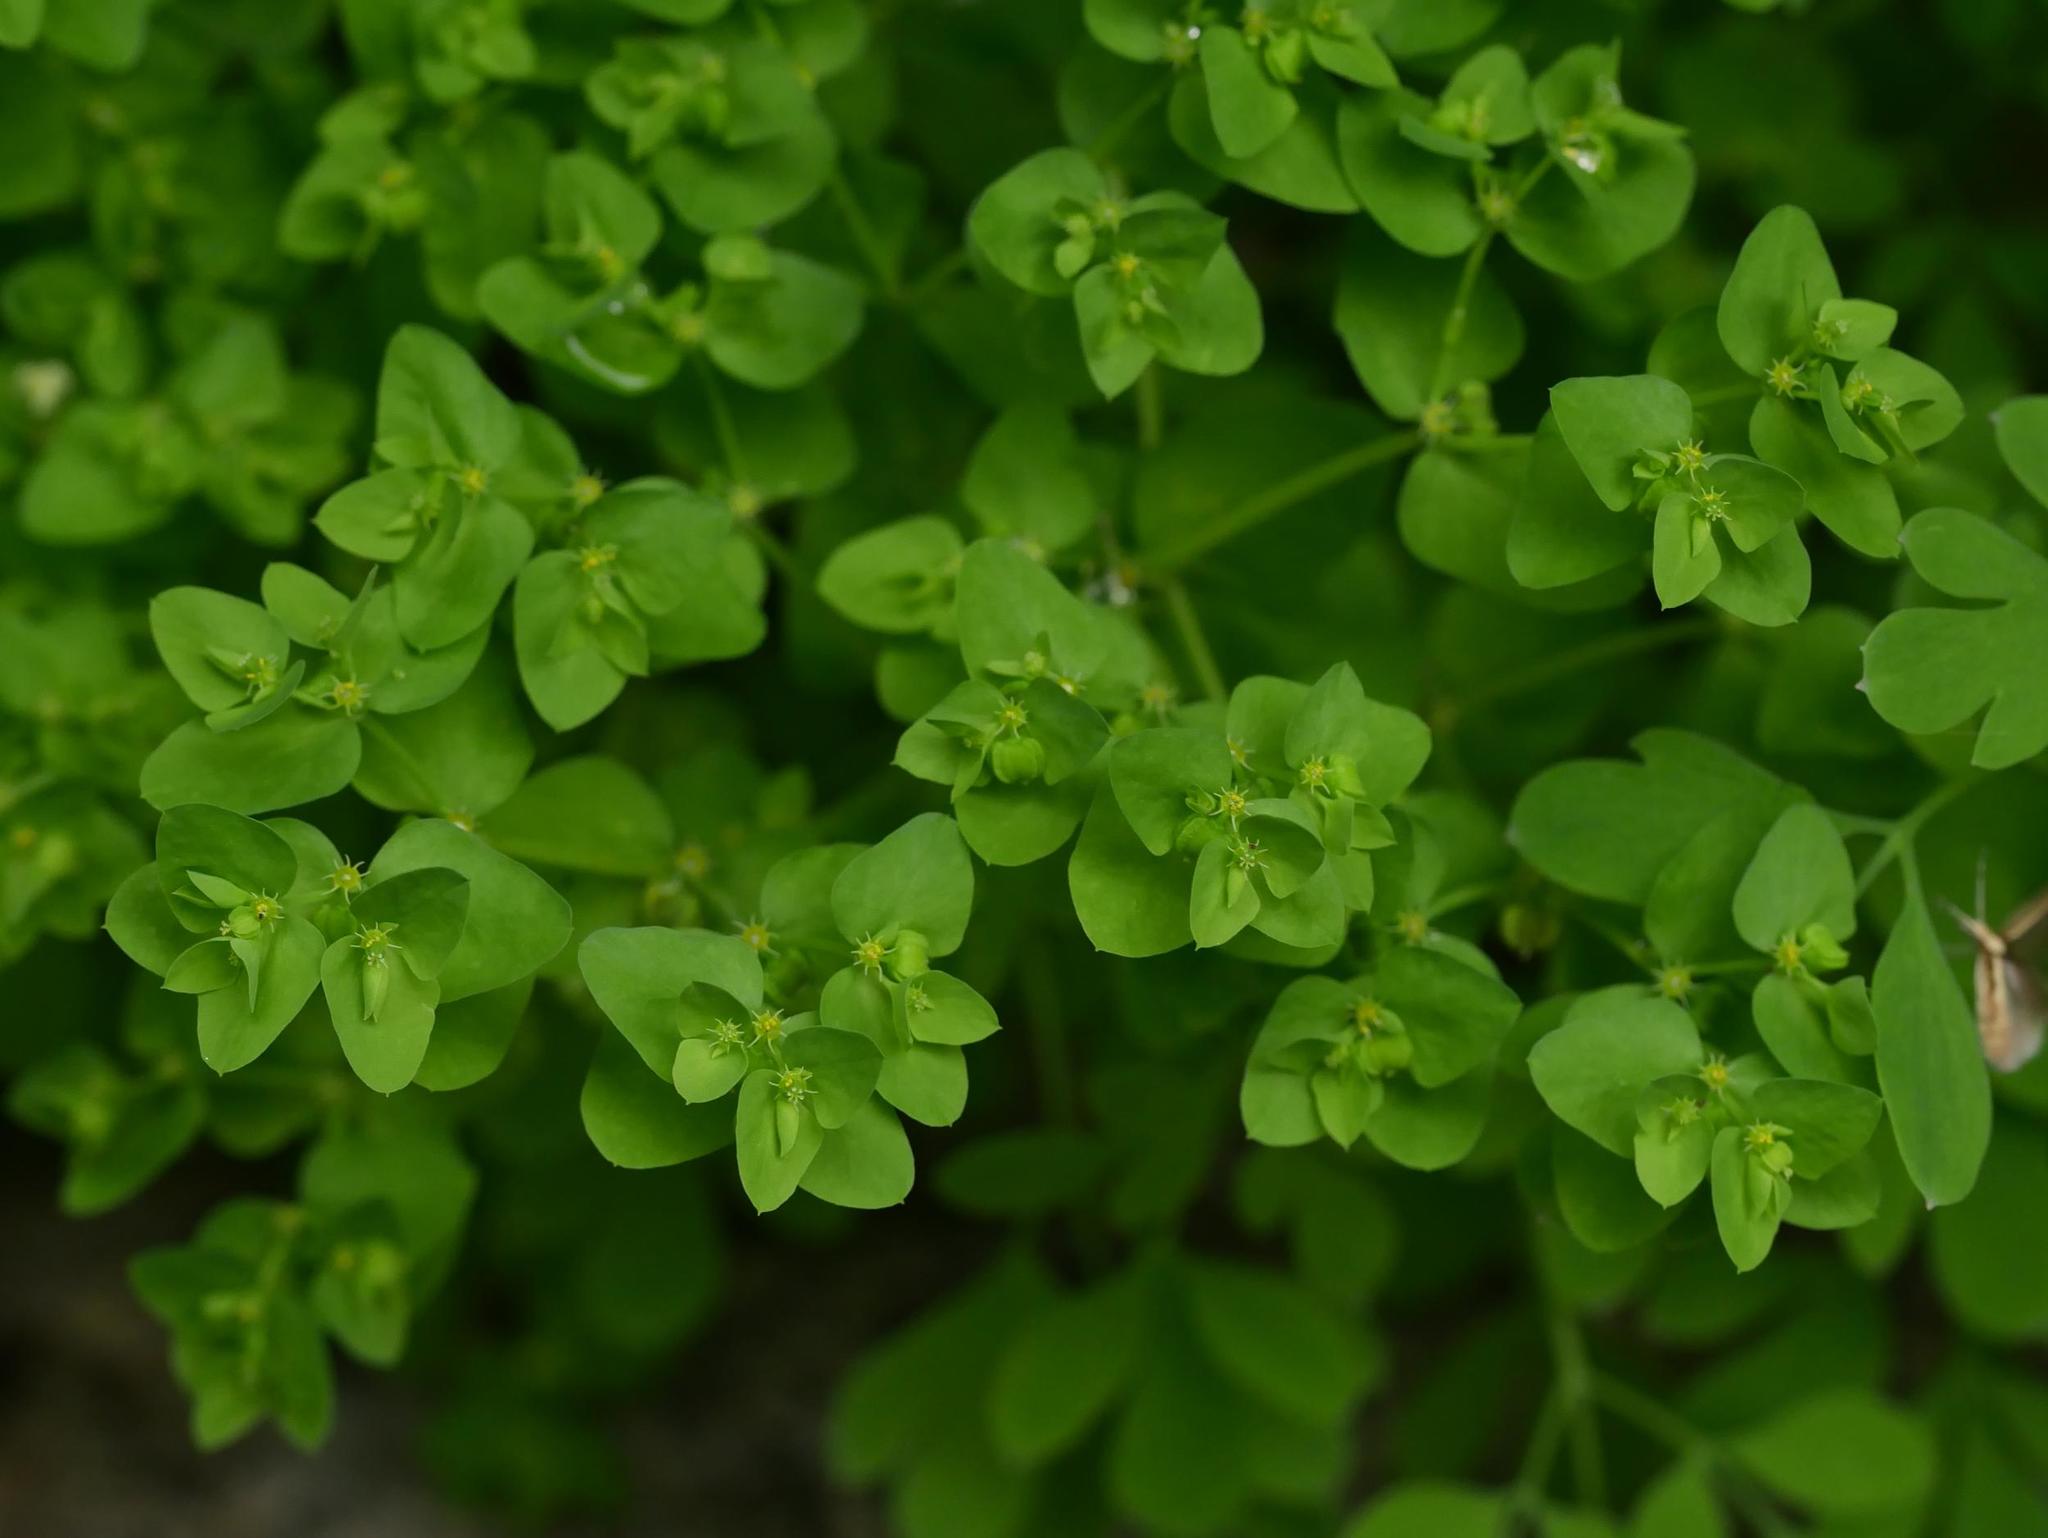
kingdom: Plantae
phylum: Tracheophyta
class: Magnoliopsida
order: Malpighiales
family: Euphorbiaceae
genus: Euphorbia
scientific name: Euphorbia peplus
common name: Petty spurge
